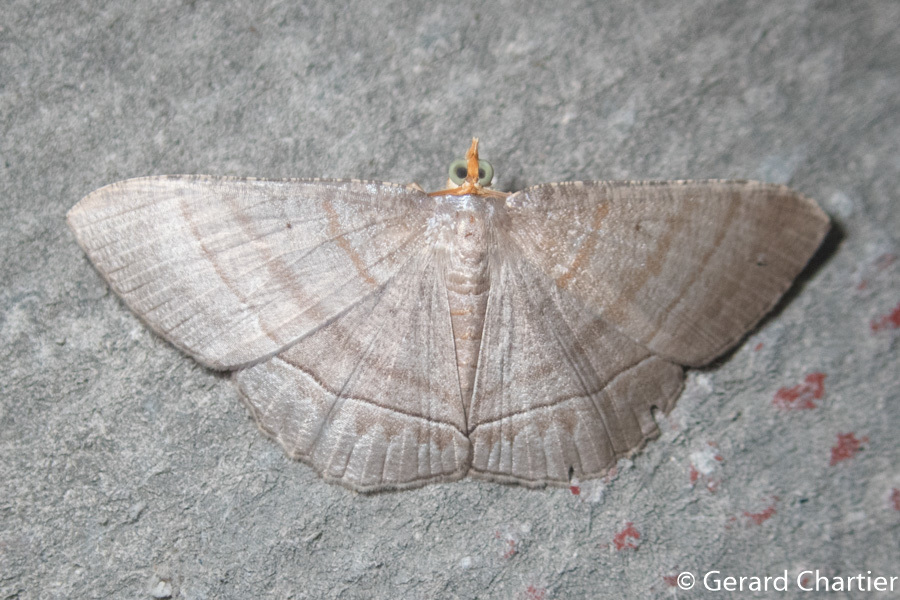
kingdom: Animalia
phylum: Arthropoda
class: Insecta
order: Lepidoptera
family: Geometridae
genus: Bulonga
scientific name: Bulonga schistacearia
